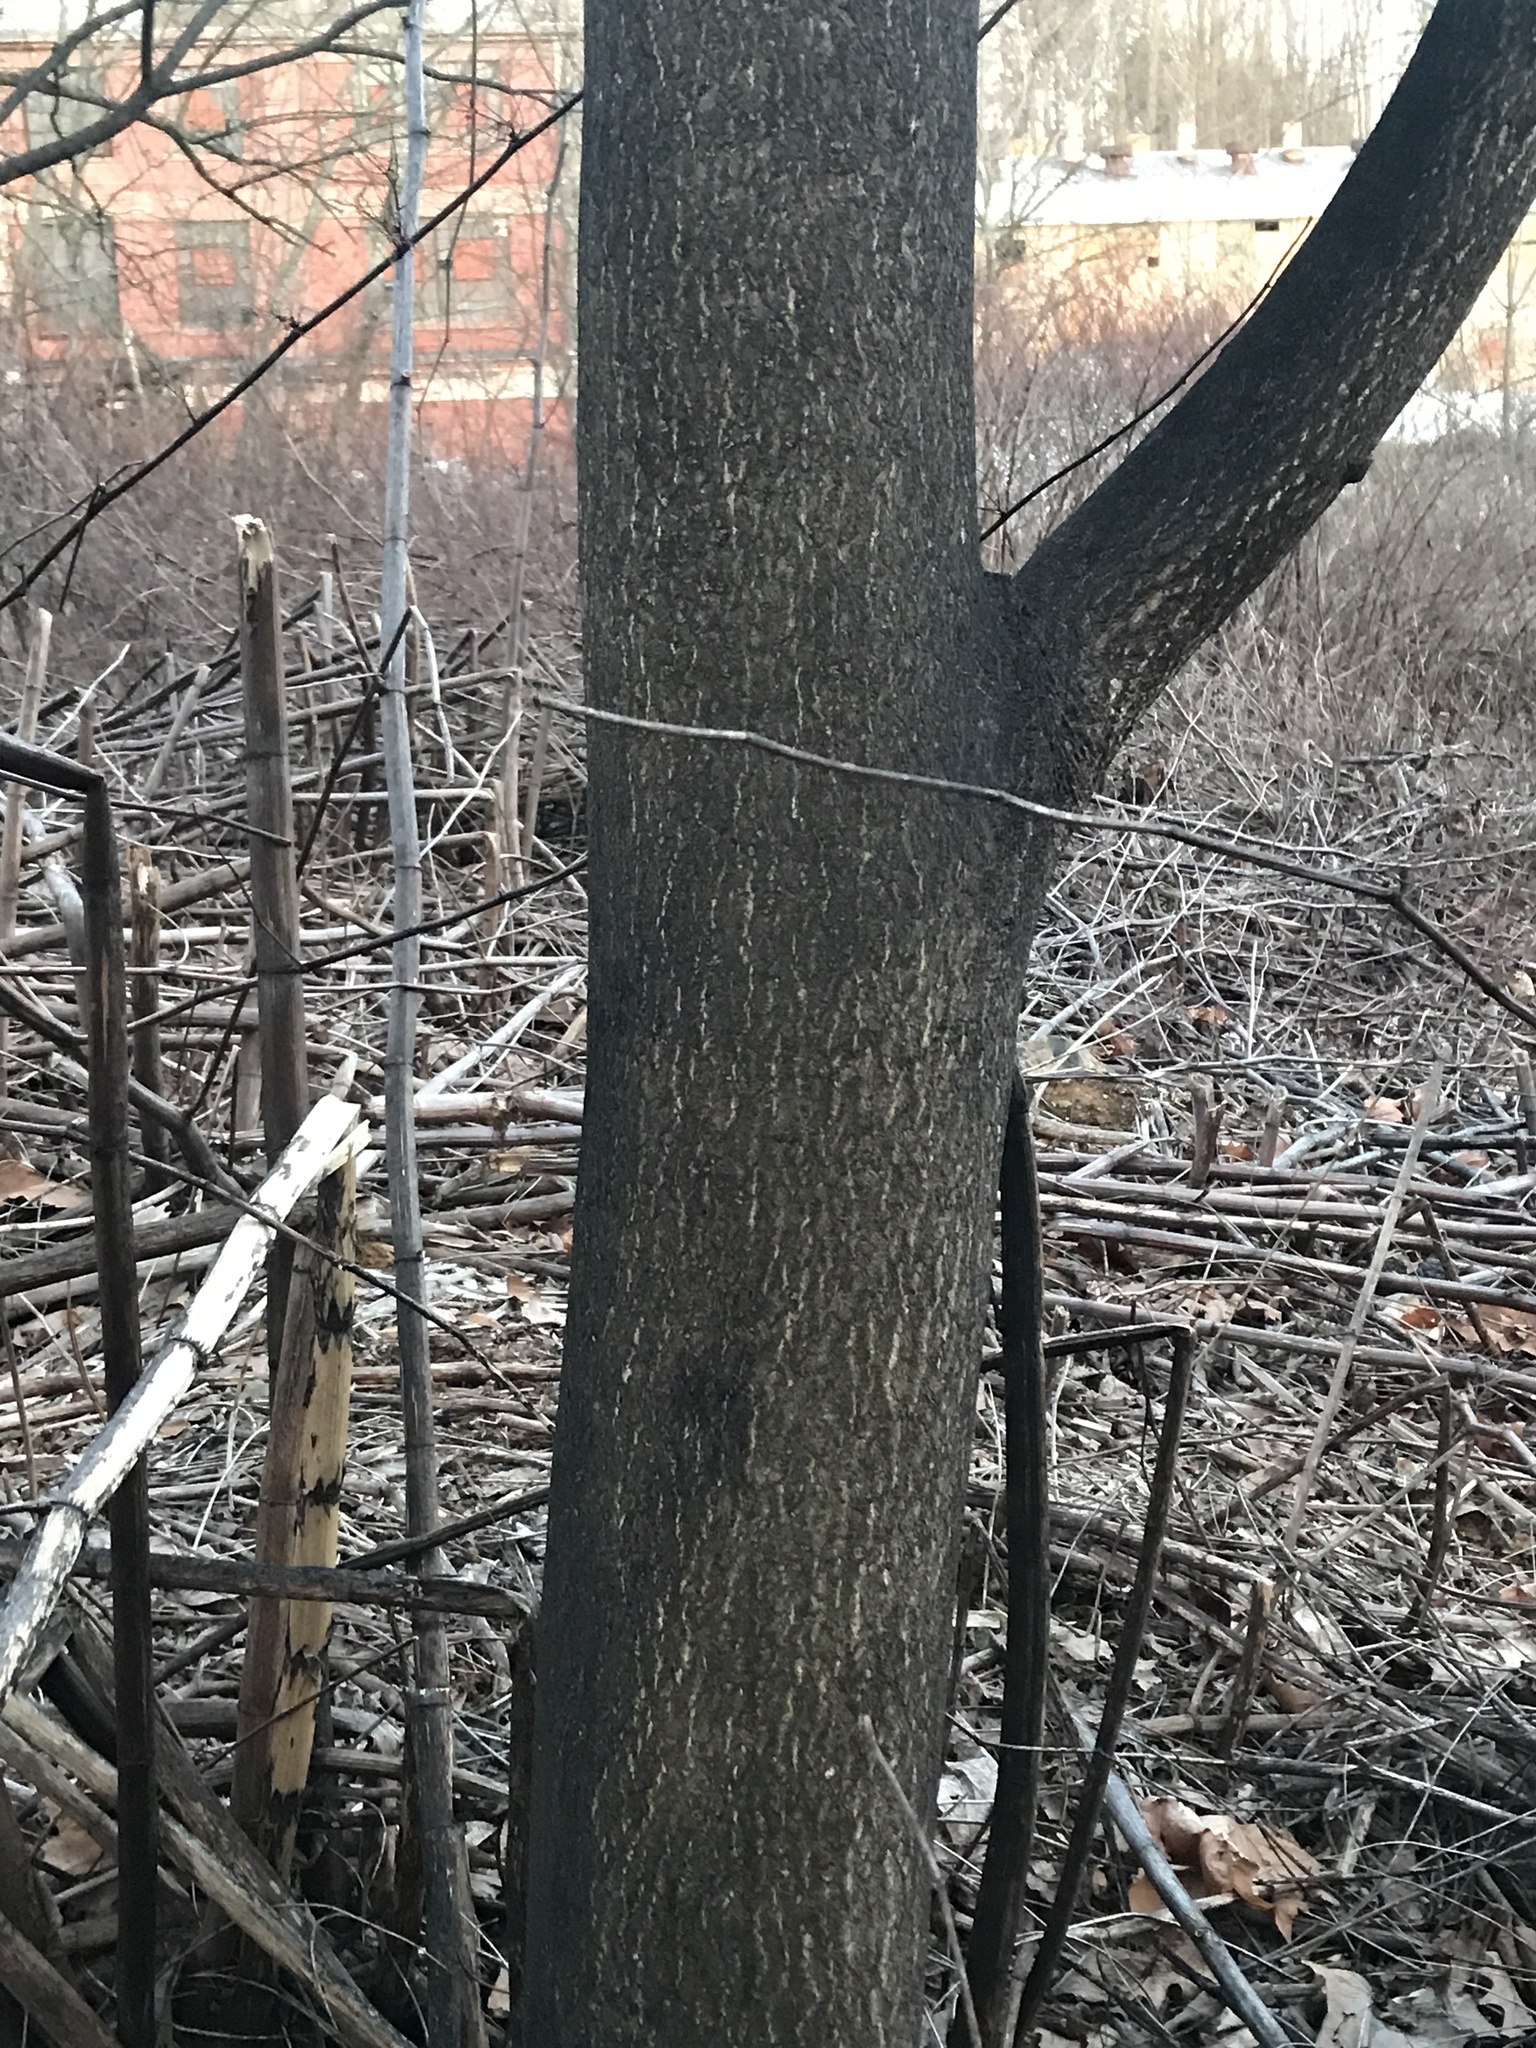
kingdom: Plantae
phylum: Tracheophyta
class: Magnoliopsida
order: Sapindales
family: Simaroubaceae
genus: Ailanthus
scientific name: Ailanthus altissima
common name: Tree-of-heaven
